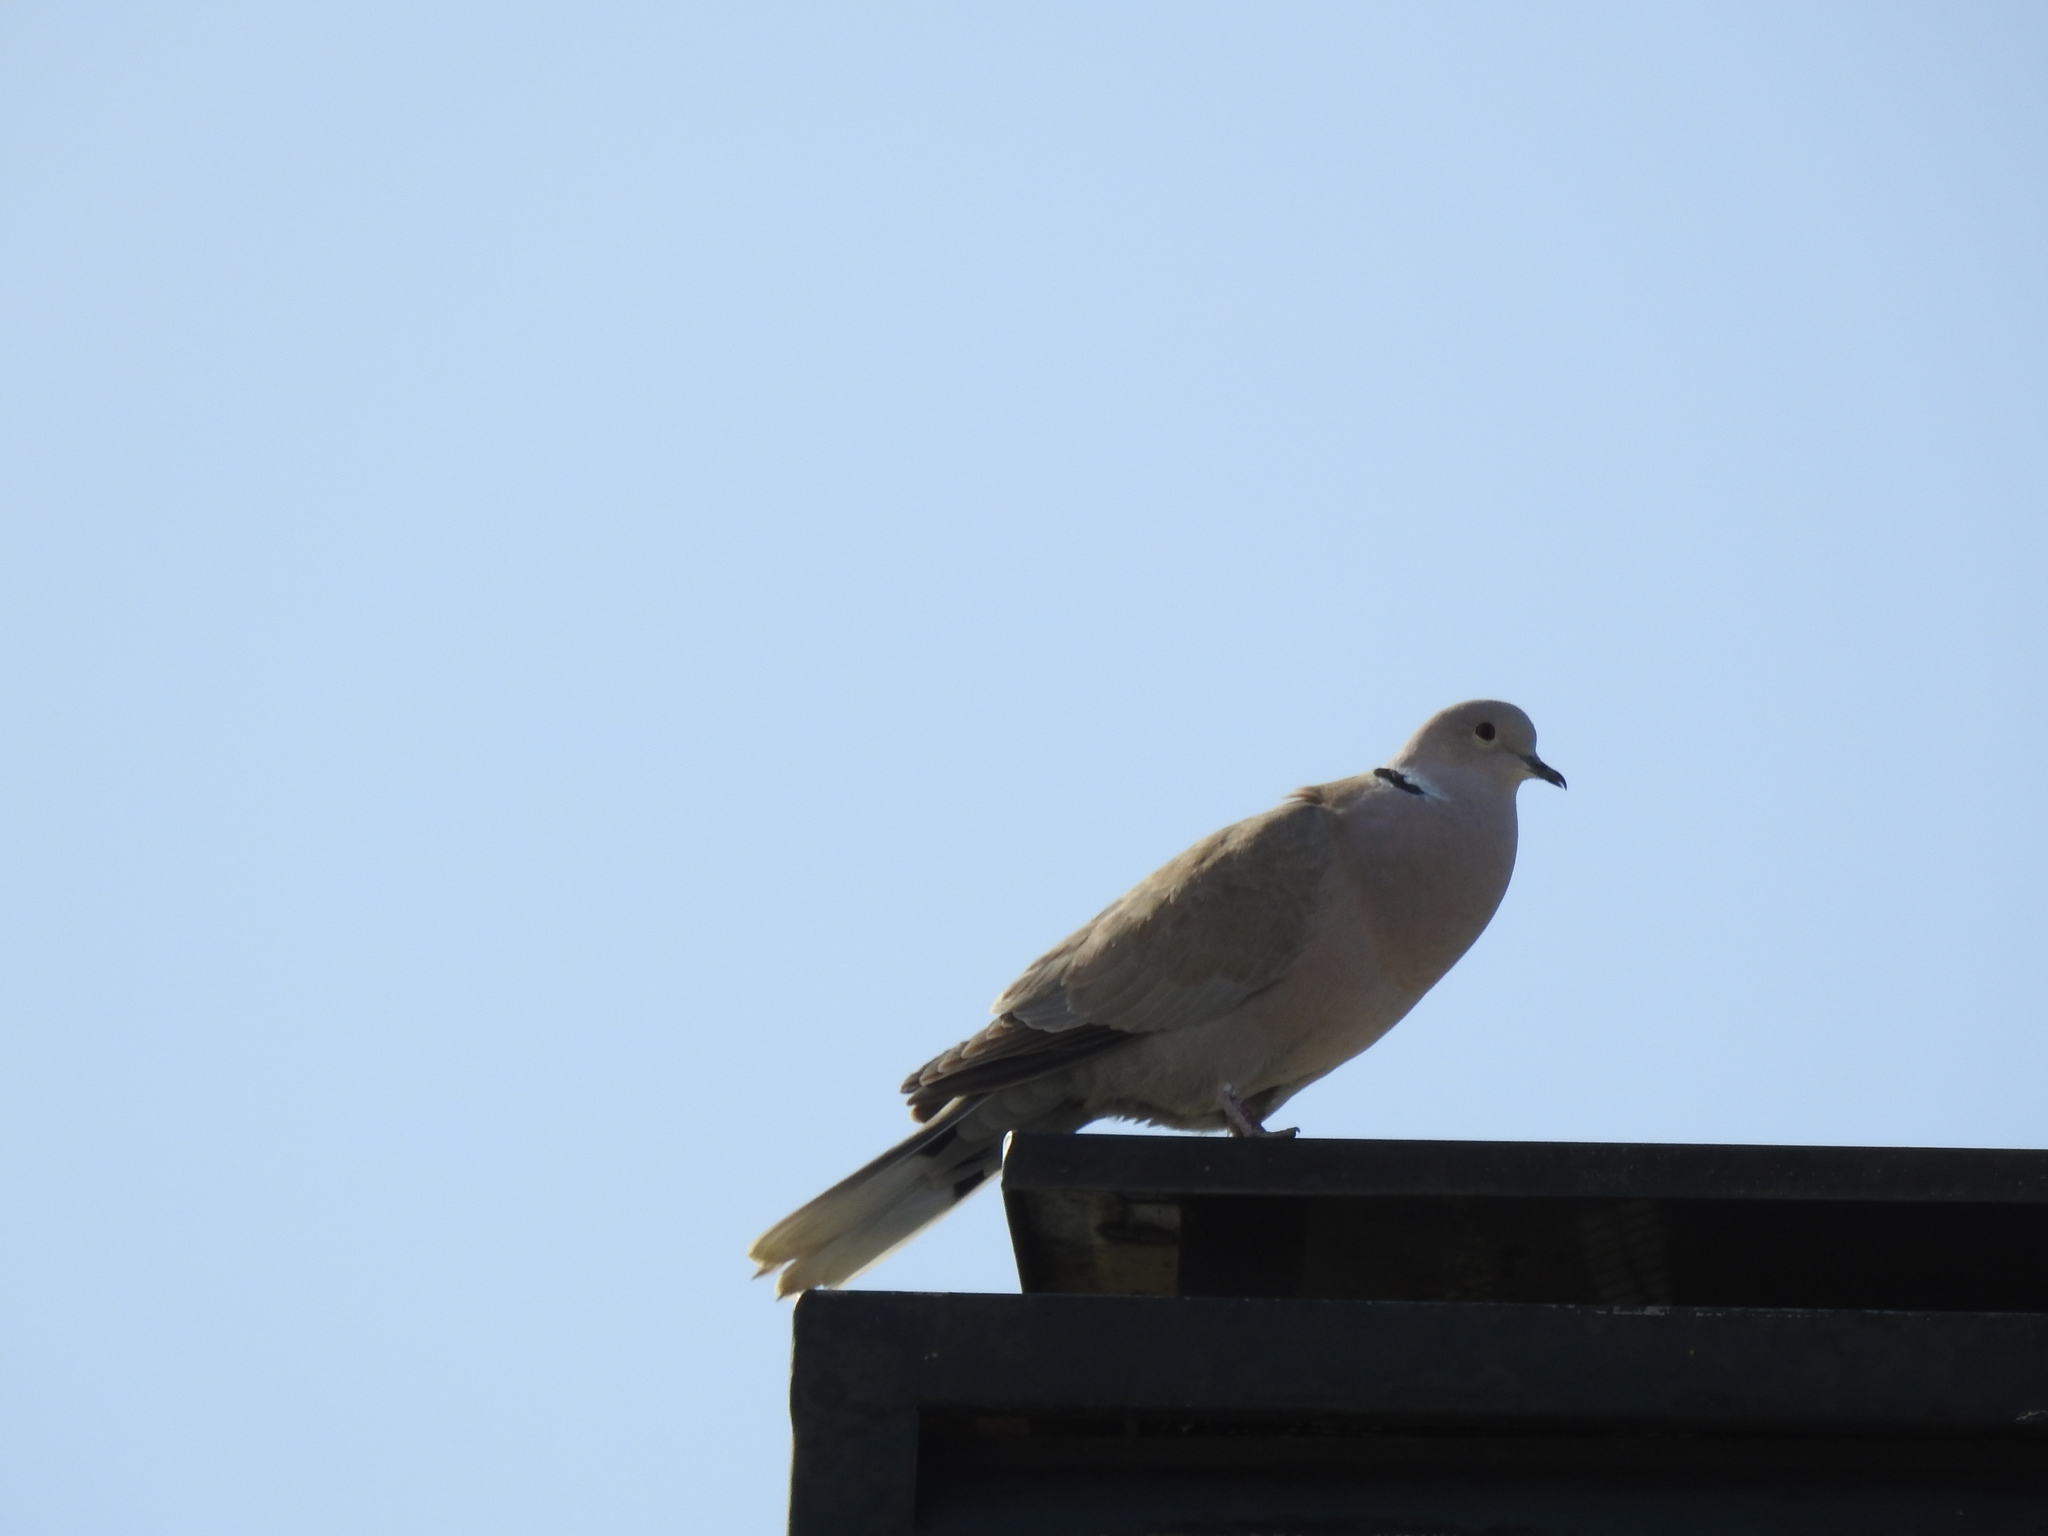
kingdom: Animalia
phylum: Chordata
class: Aves
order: Columbiformes
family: Columbidae
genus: Streptopelia
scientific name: Streptopelia decaocto
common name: Eurasian collared dove
